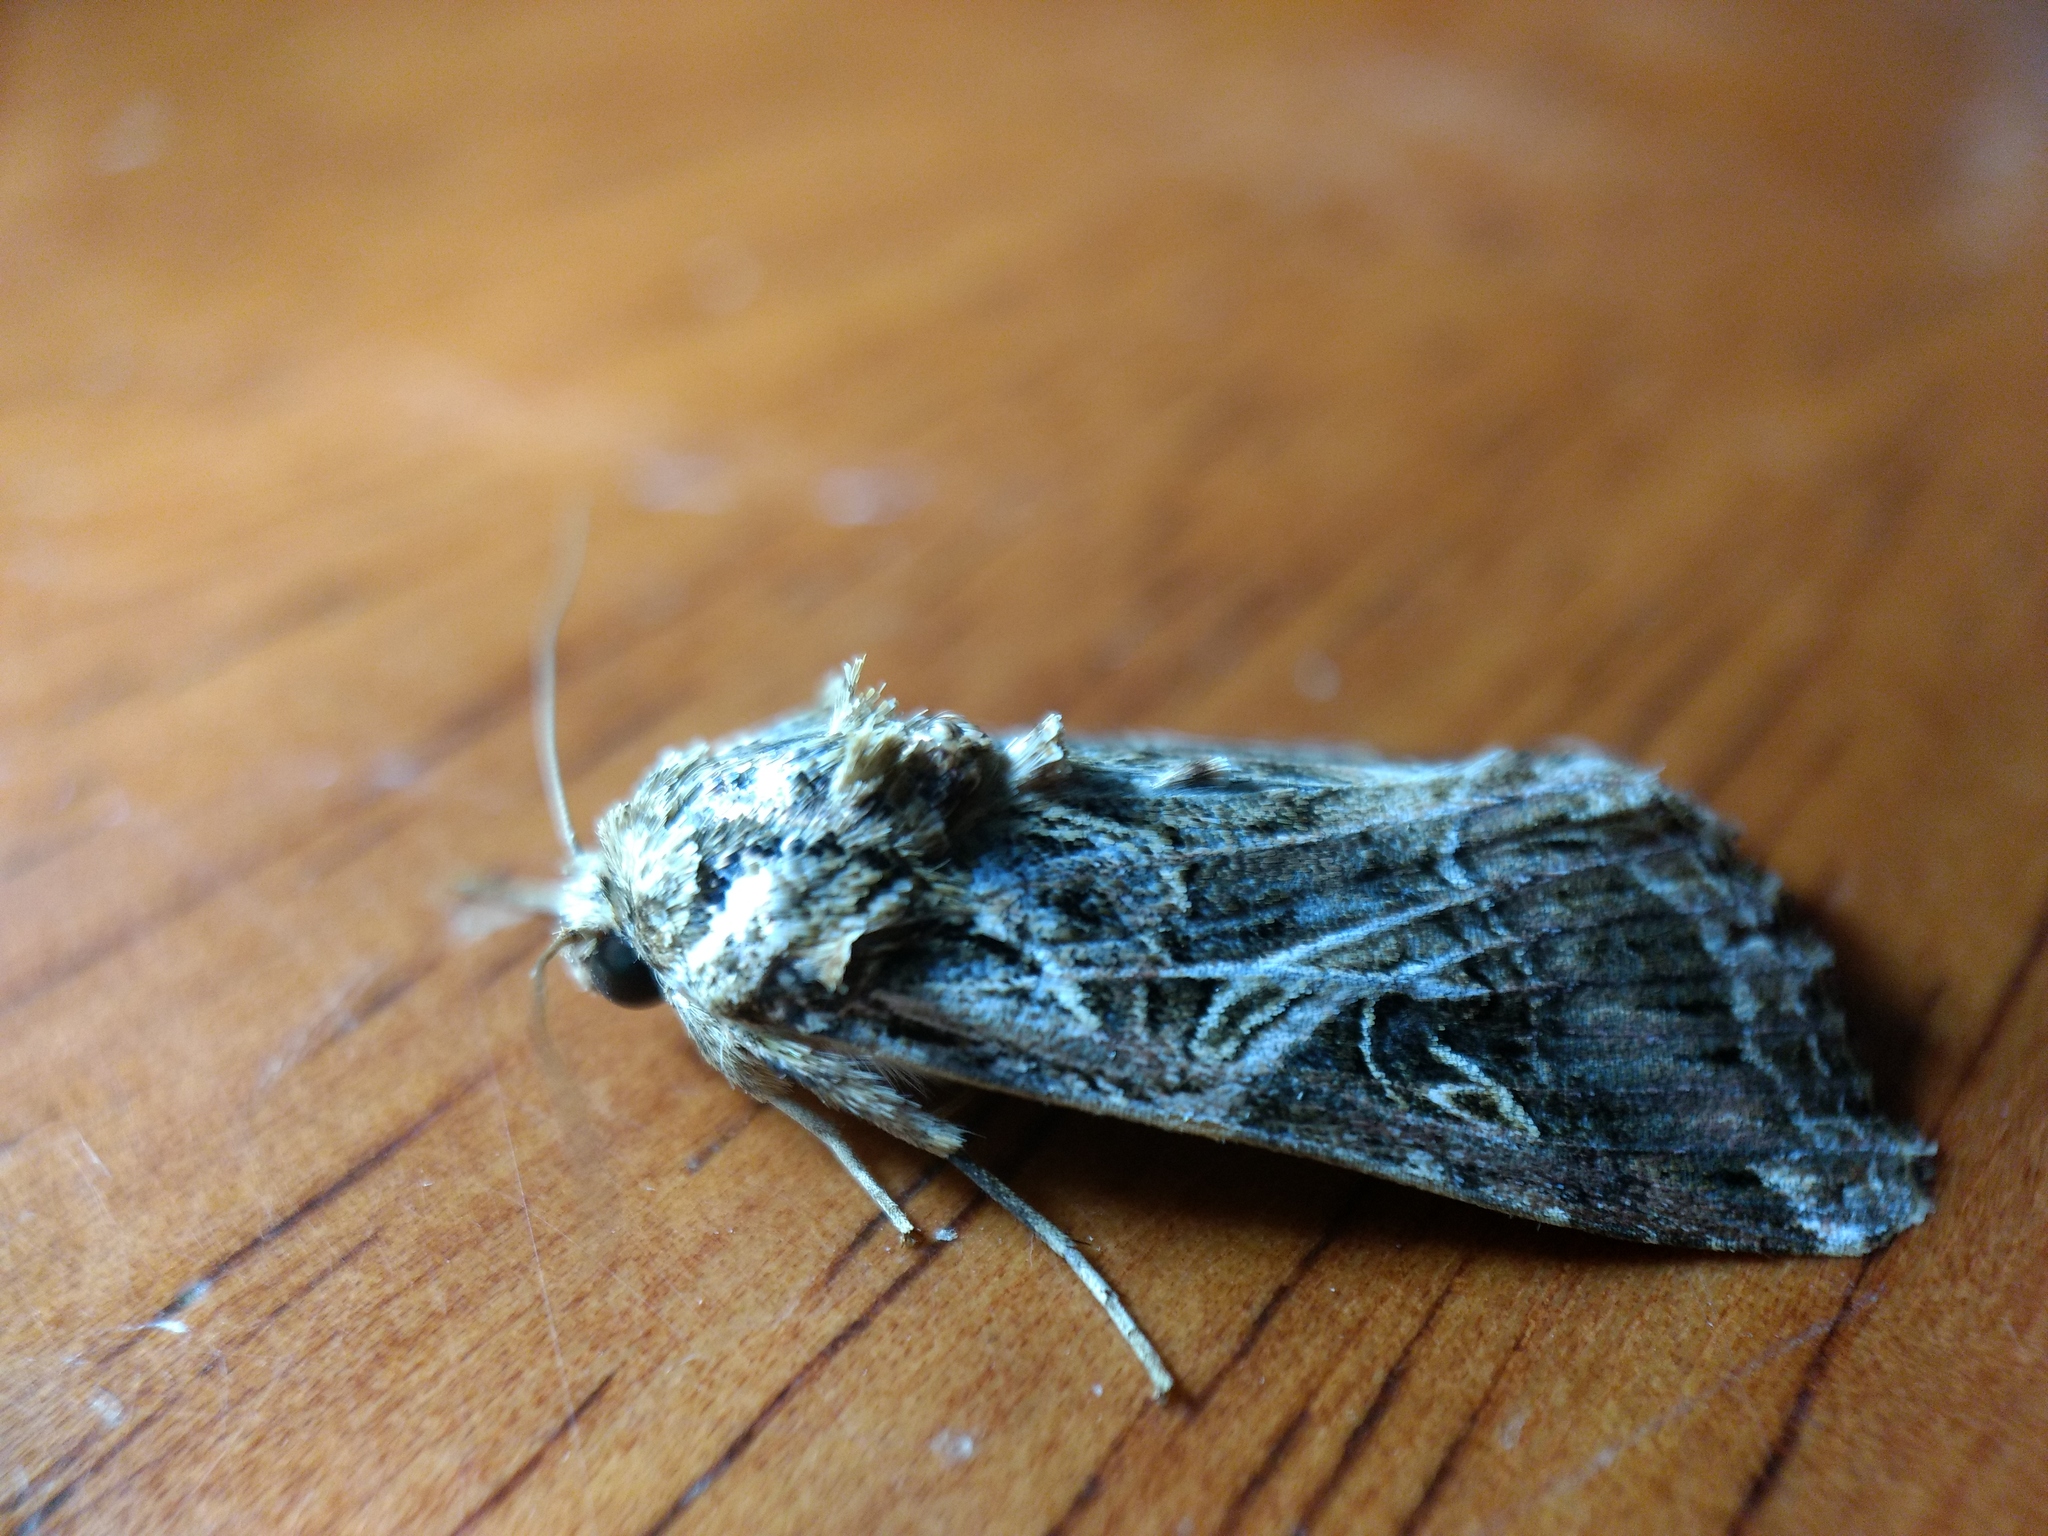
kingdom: Animalia
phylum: Arthropoda
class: Insecta
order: Lepidoptera
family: Noctuidae
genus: Spodoptera
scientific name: Spodoptera litura
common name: Asian cotton leafworm
